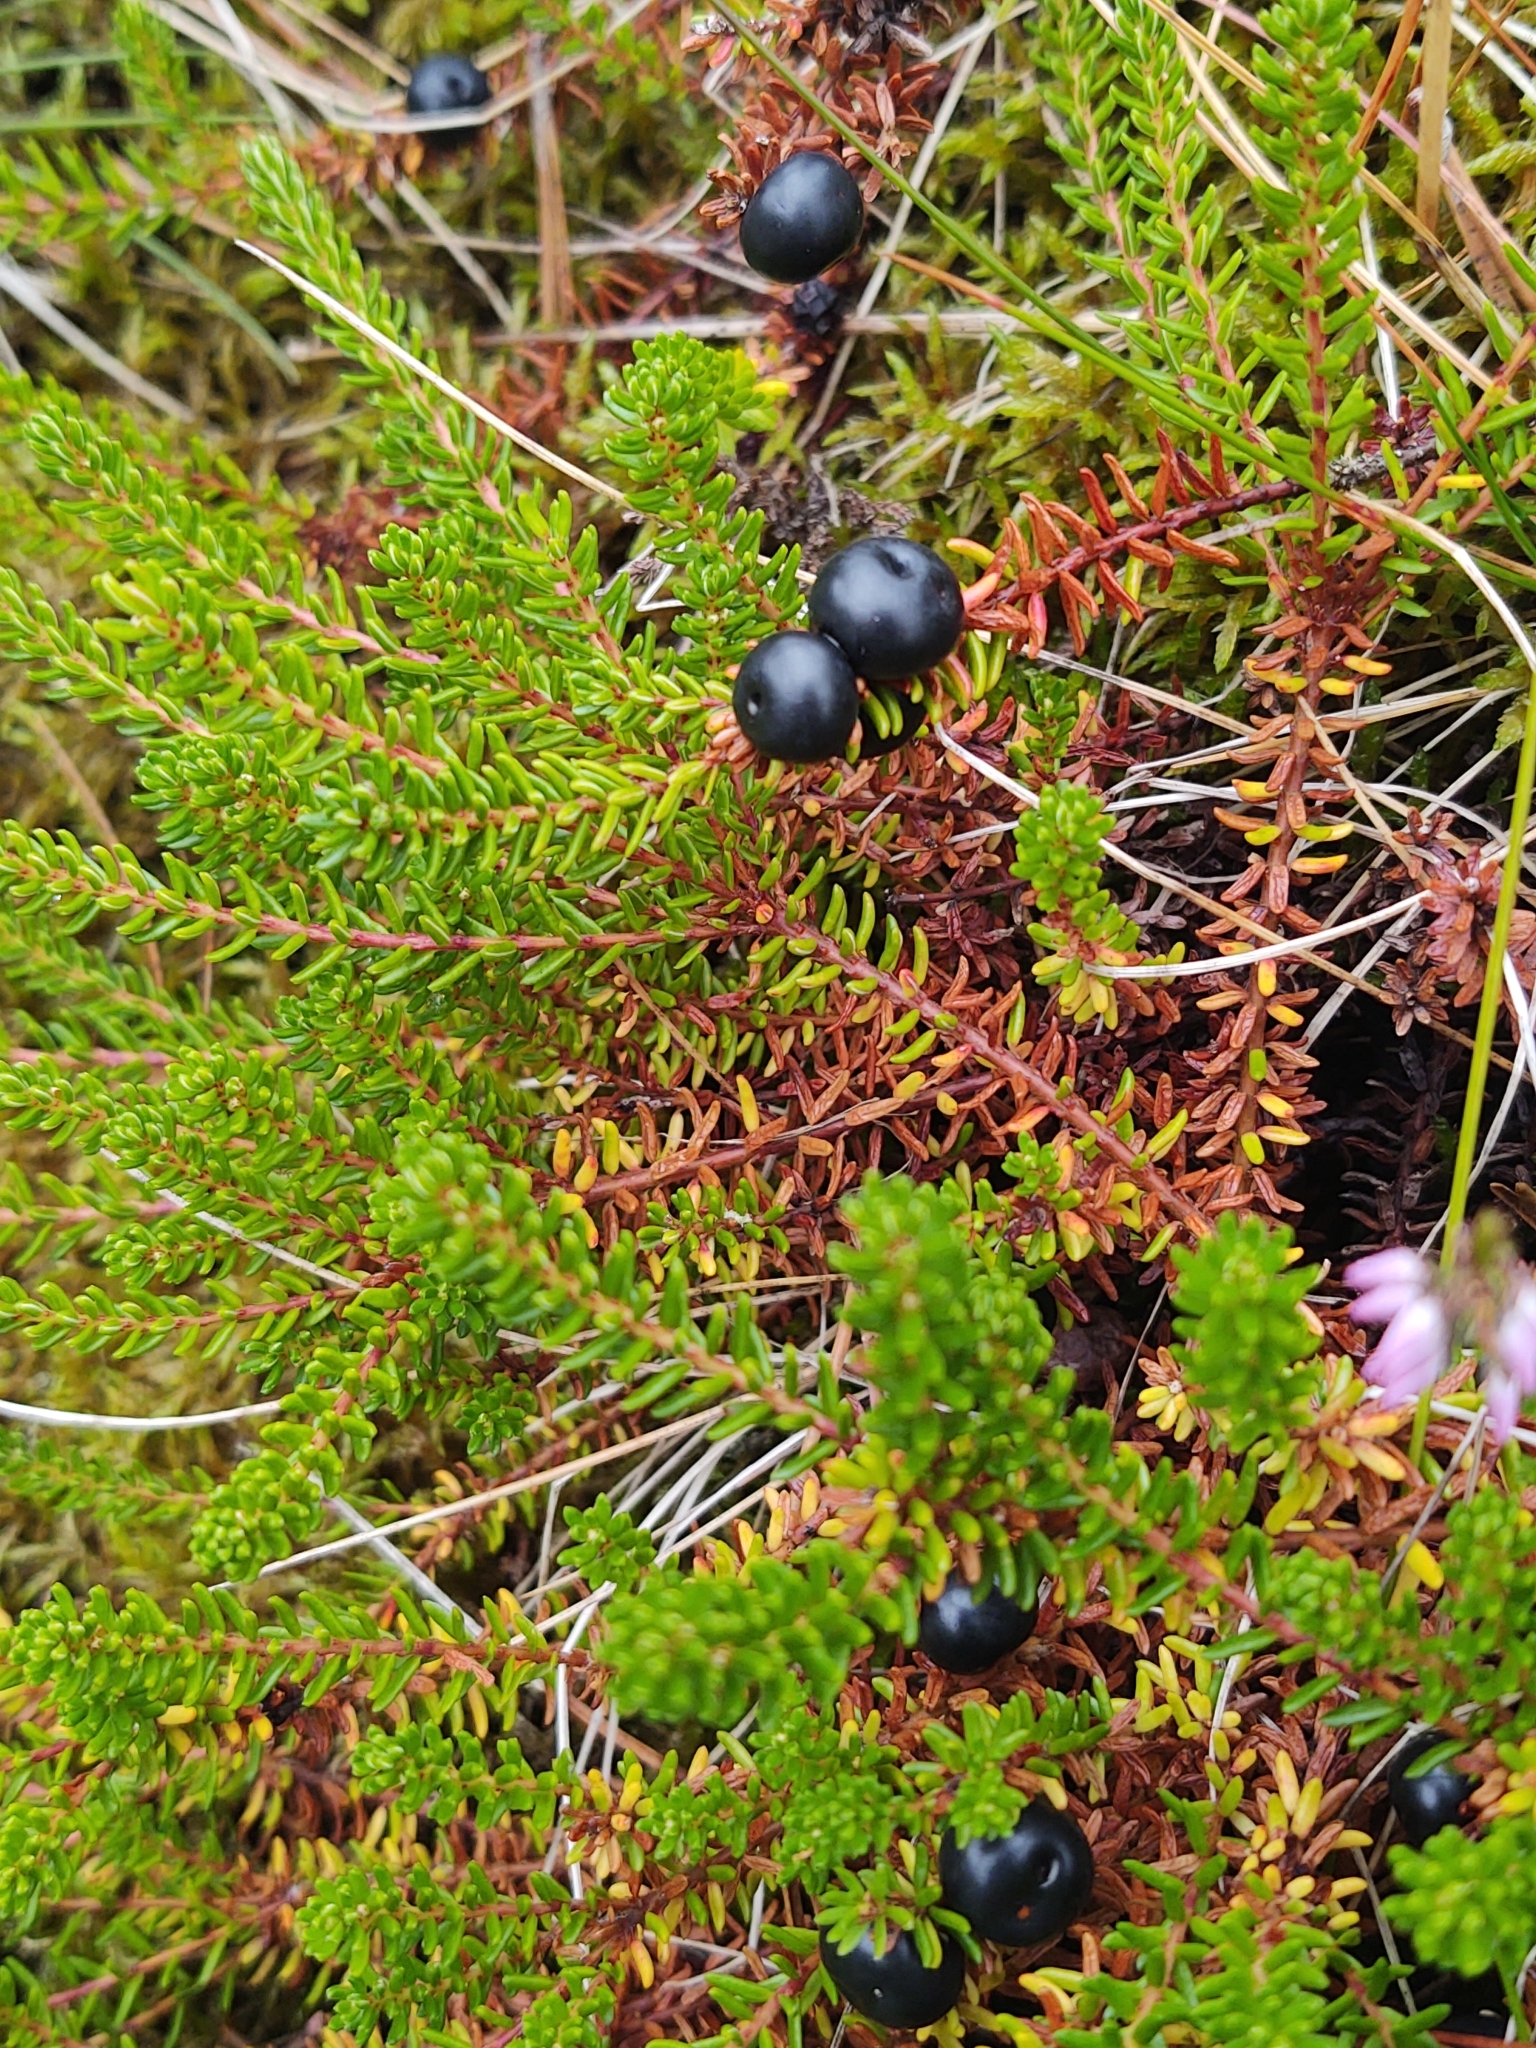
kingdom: Plantae
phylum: Tracheophyta
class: Magnoliopsida
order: Ericales
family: Ericaceae
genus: Empetrum
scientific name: Empetrum nigrum
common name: Black crowberry
